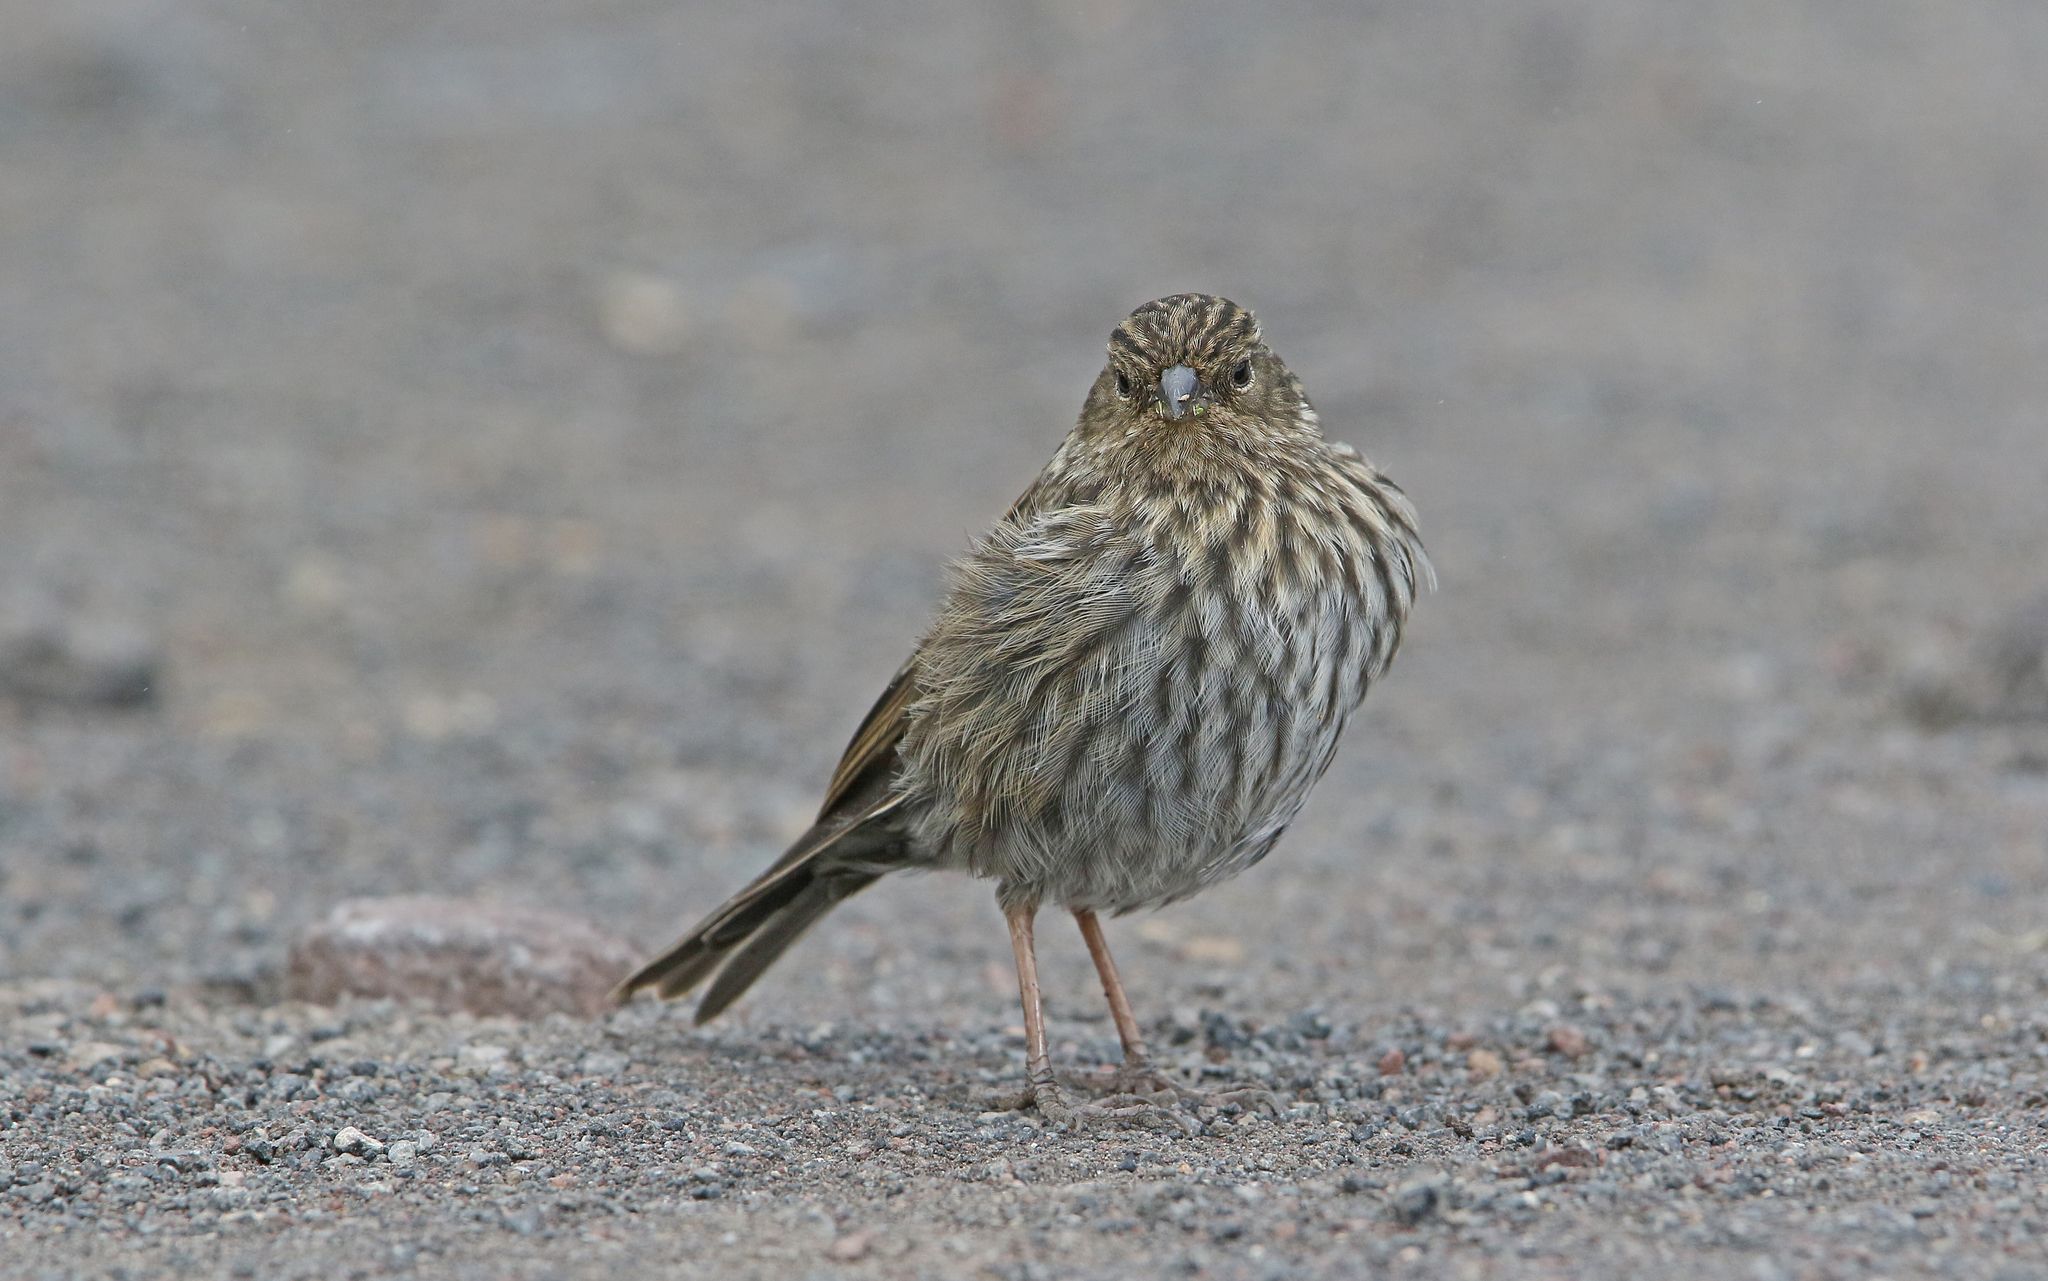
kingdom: Animalia
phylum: Chordata
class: Aves
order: Passeriformes
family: Thraupidae
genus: Geospizopsis
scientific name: Geospizopsis unicolor
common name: Plumbeous sierra-finch
